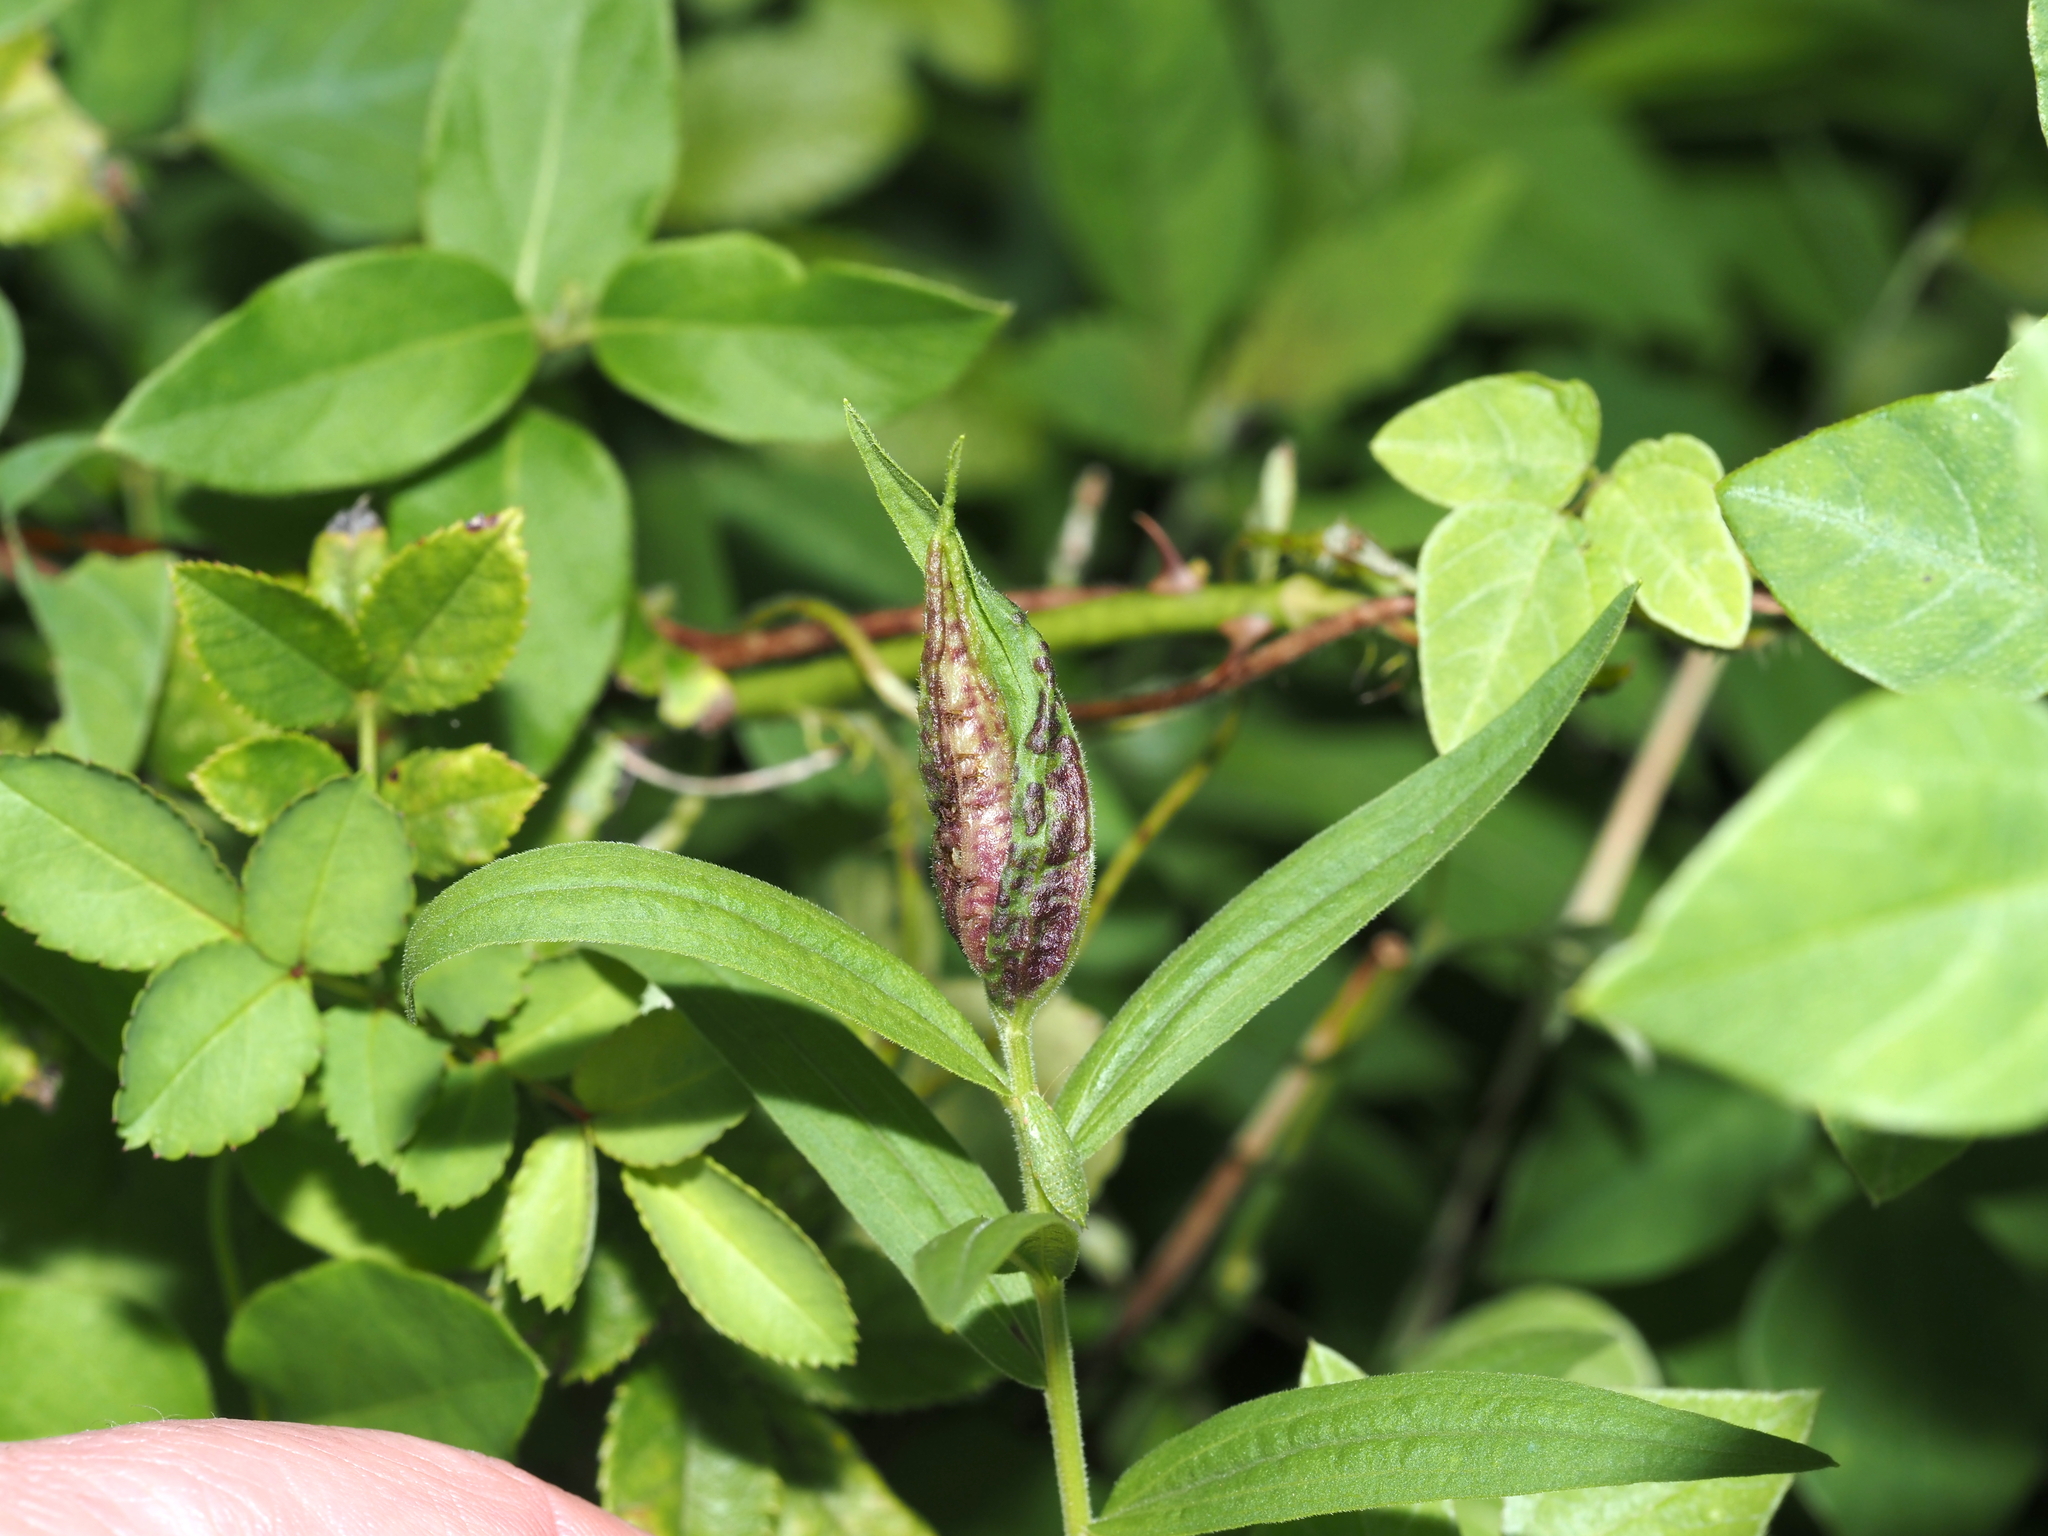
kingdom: Animalia
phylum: Arthropoda
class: Insecta
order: Diptera
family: Cecidomyiidae
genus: Dasineura
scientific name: Dasineura carbonaria
